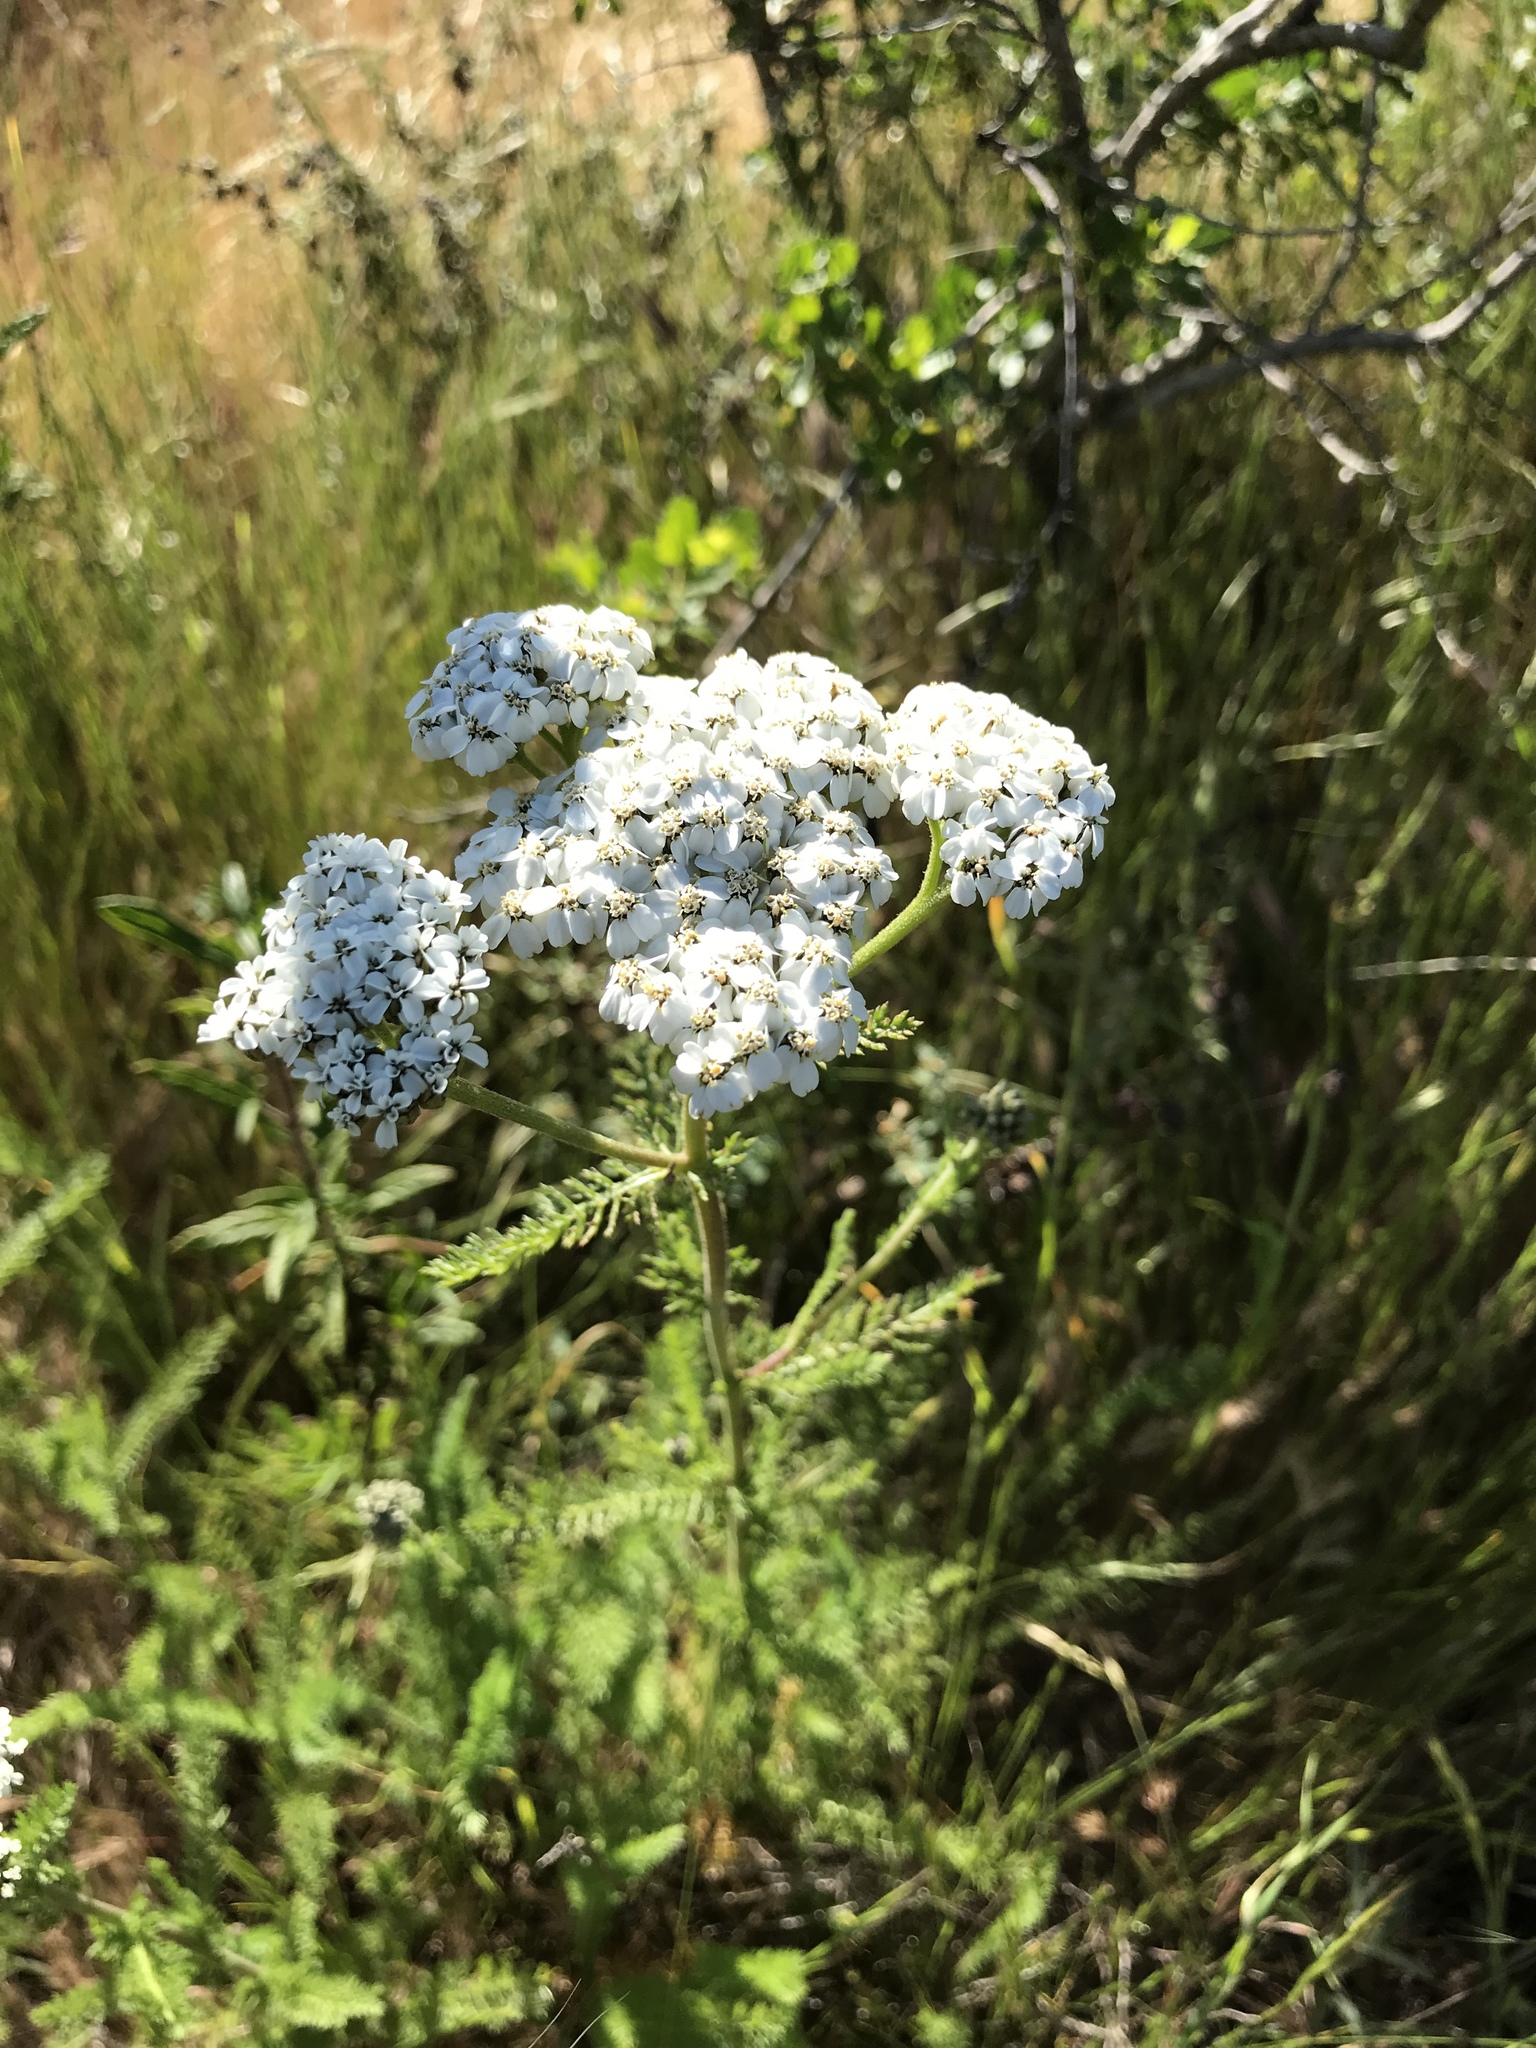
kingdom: Plantae
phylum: Tracheophyta
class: Magnoliopsida
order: Asterales
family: Asteraceae
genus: Achillea
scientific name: Achillea millefolium
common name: Yarrow
